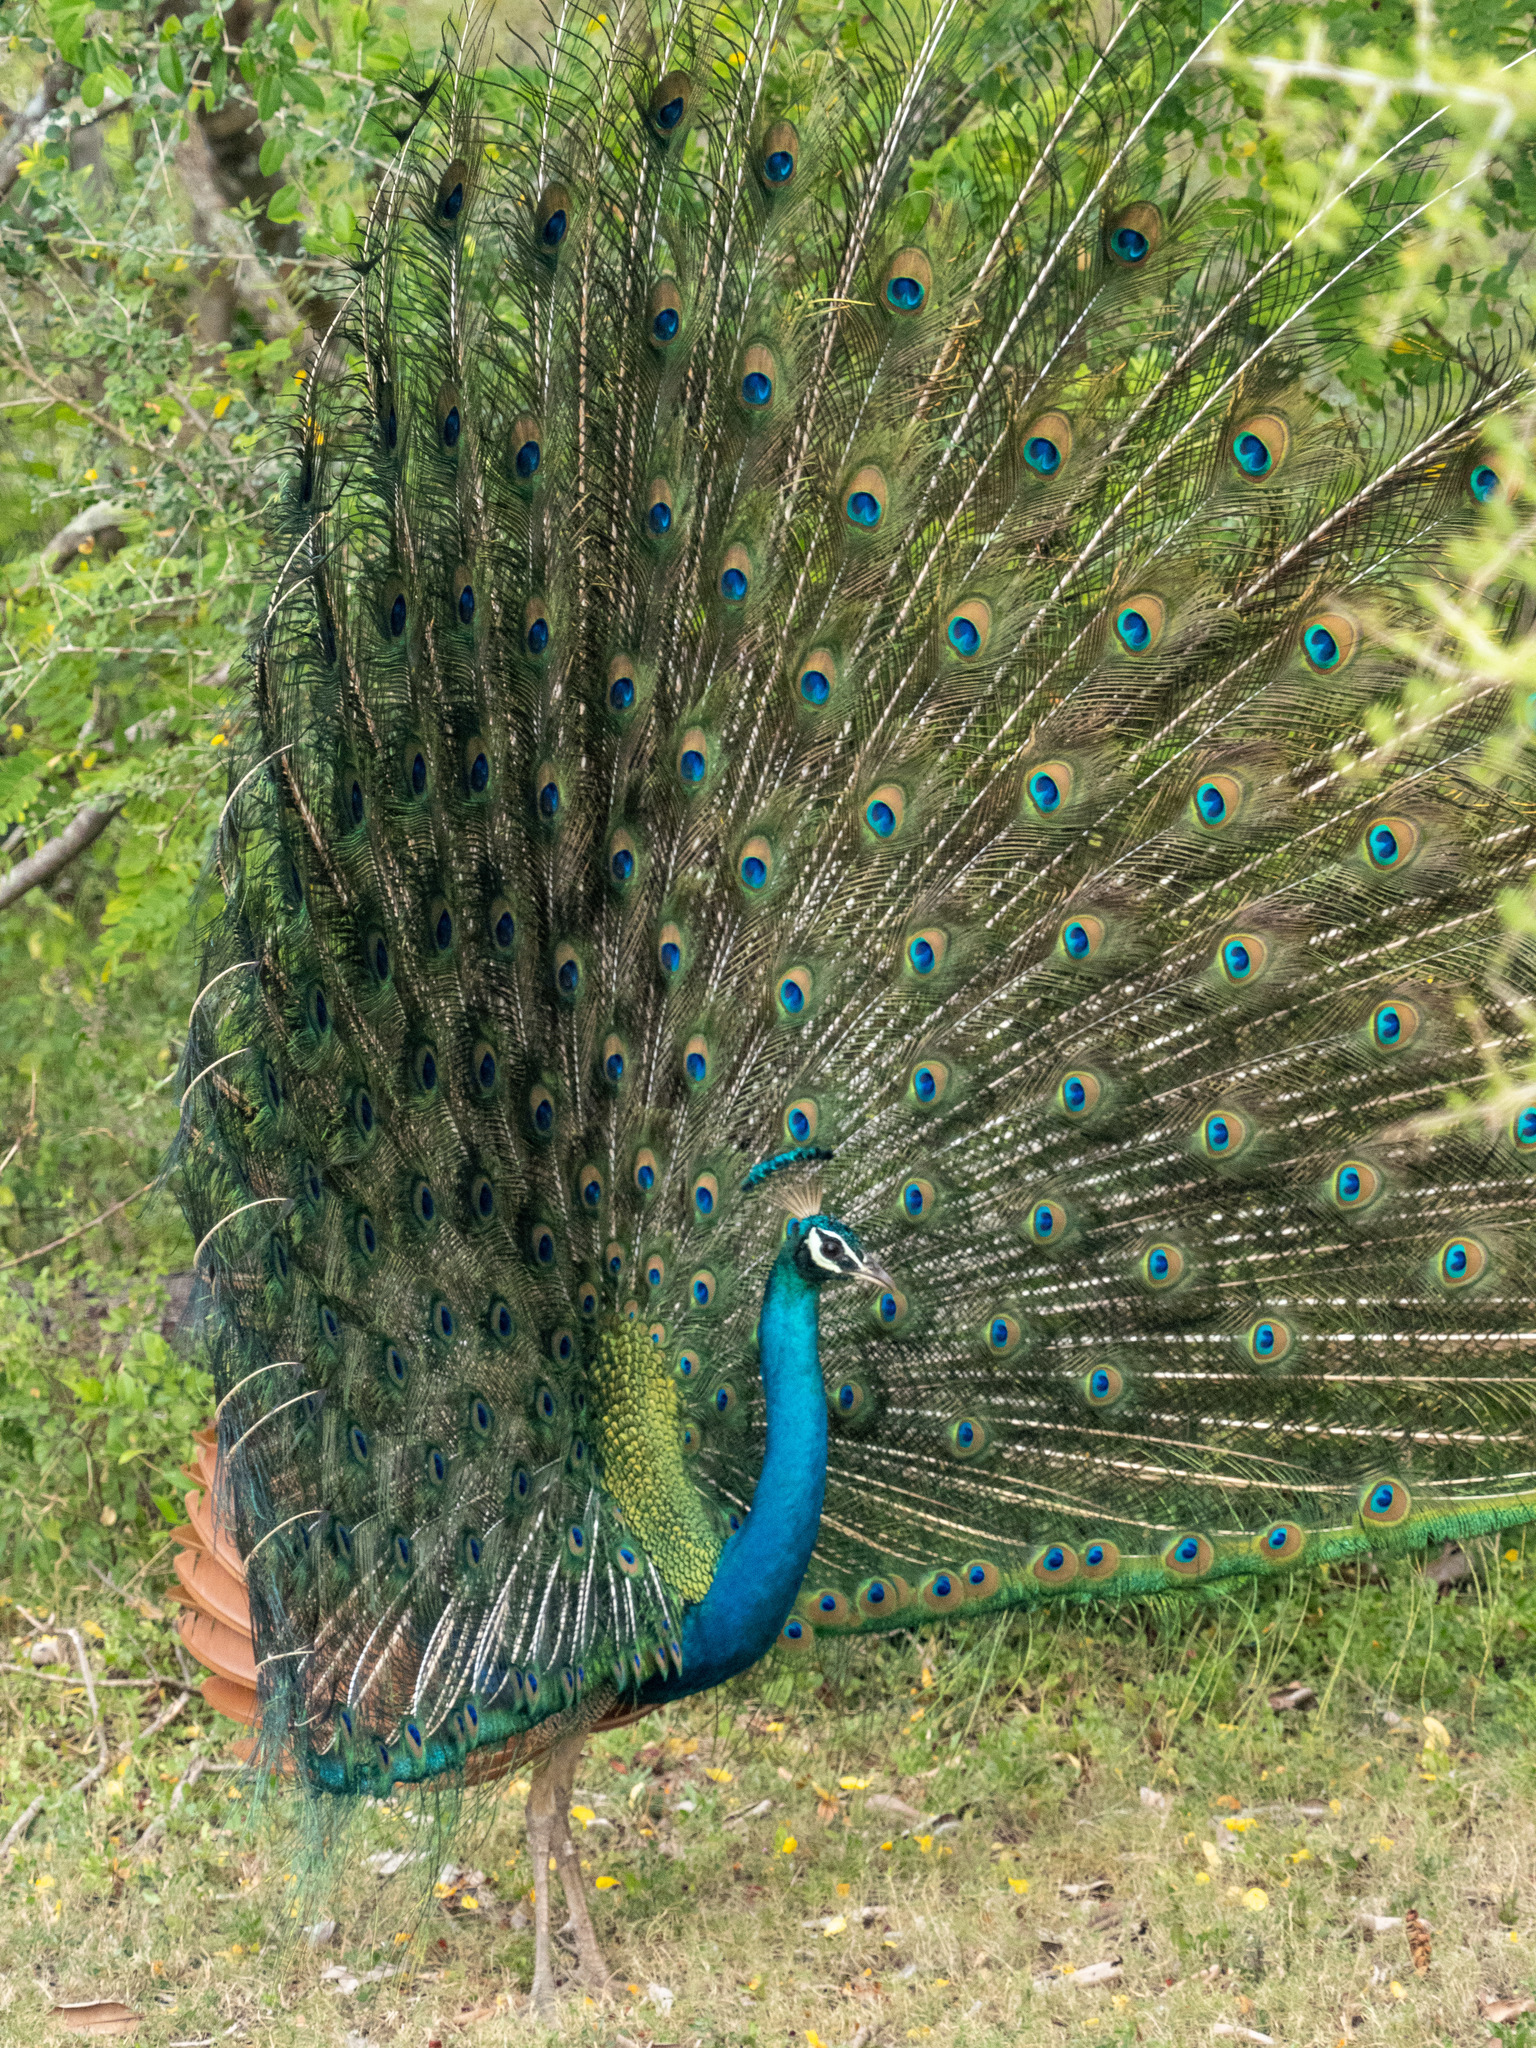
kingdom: Animalia
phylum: Chordata
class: Aves
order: Galliformes
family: Phasianidae
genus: Pavo
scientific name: Pavo cristatus
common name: Indian peafowl
